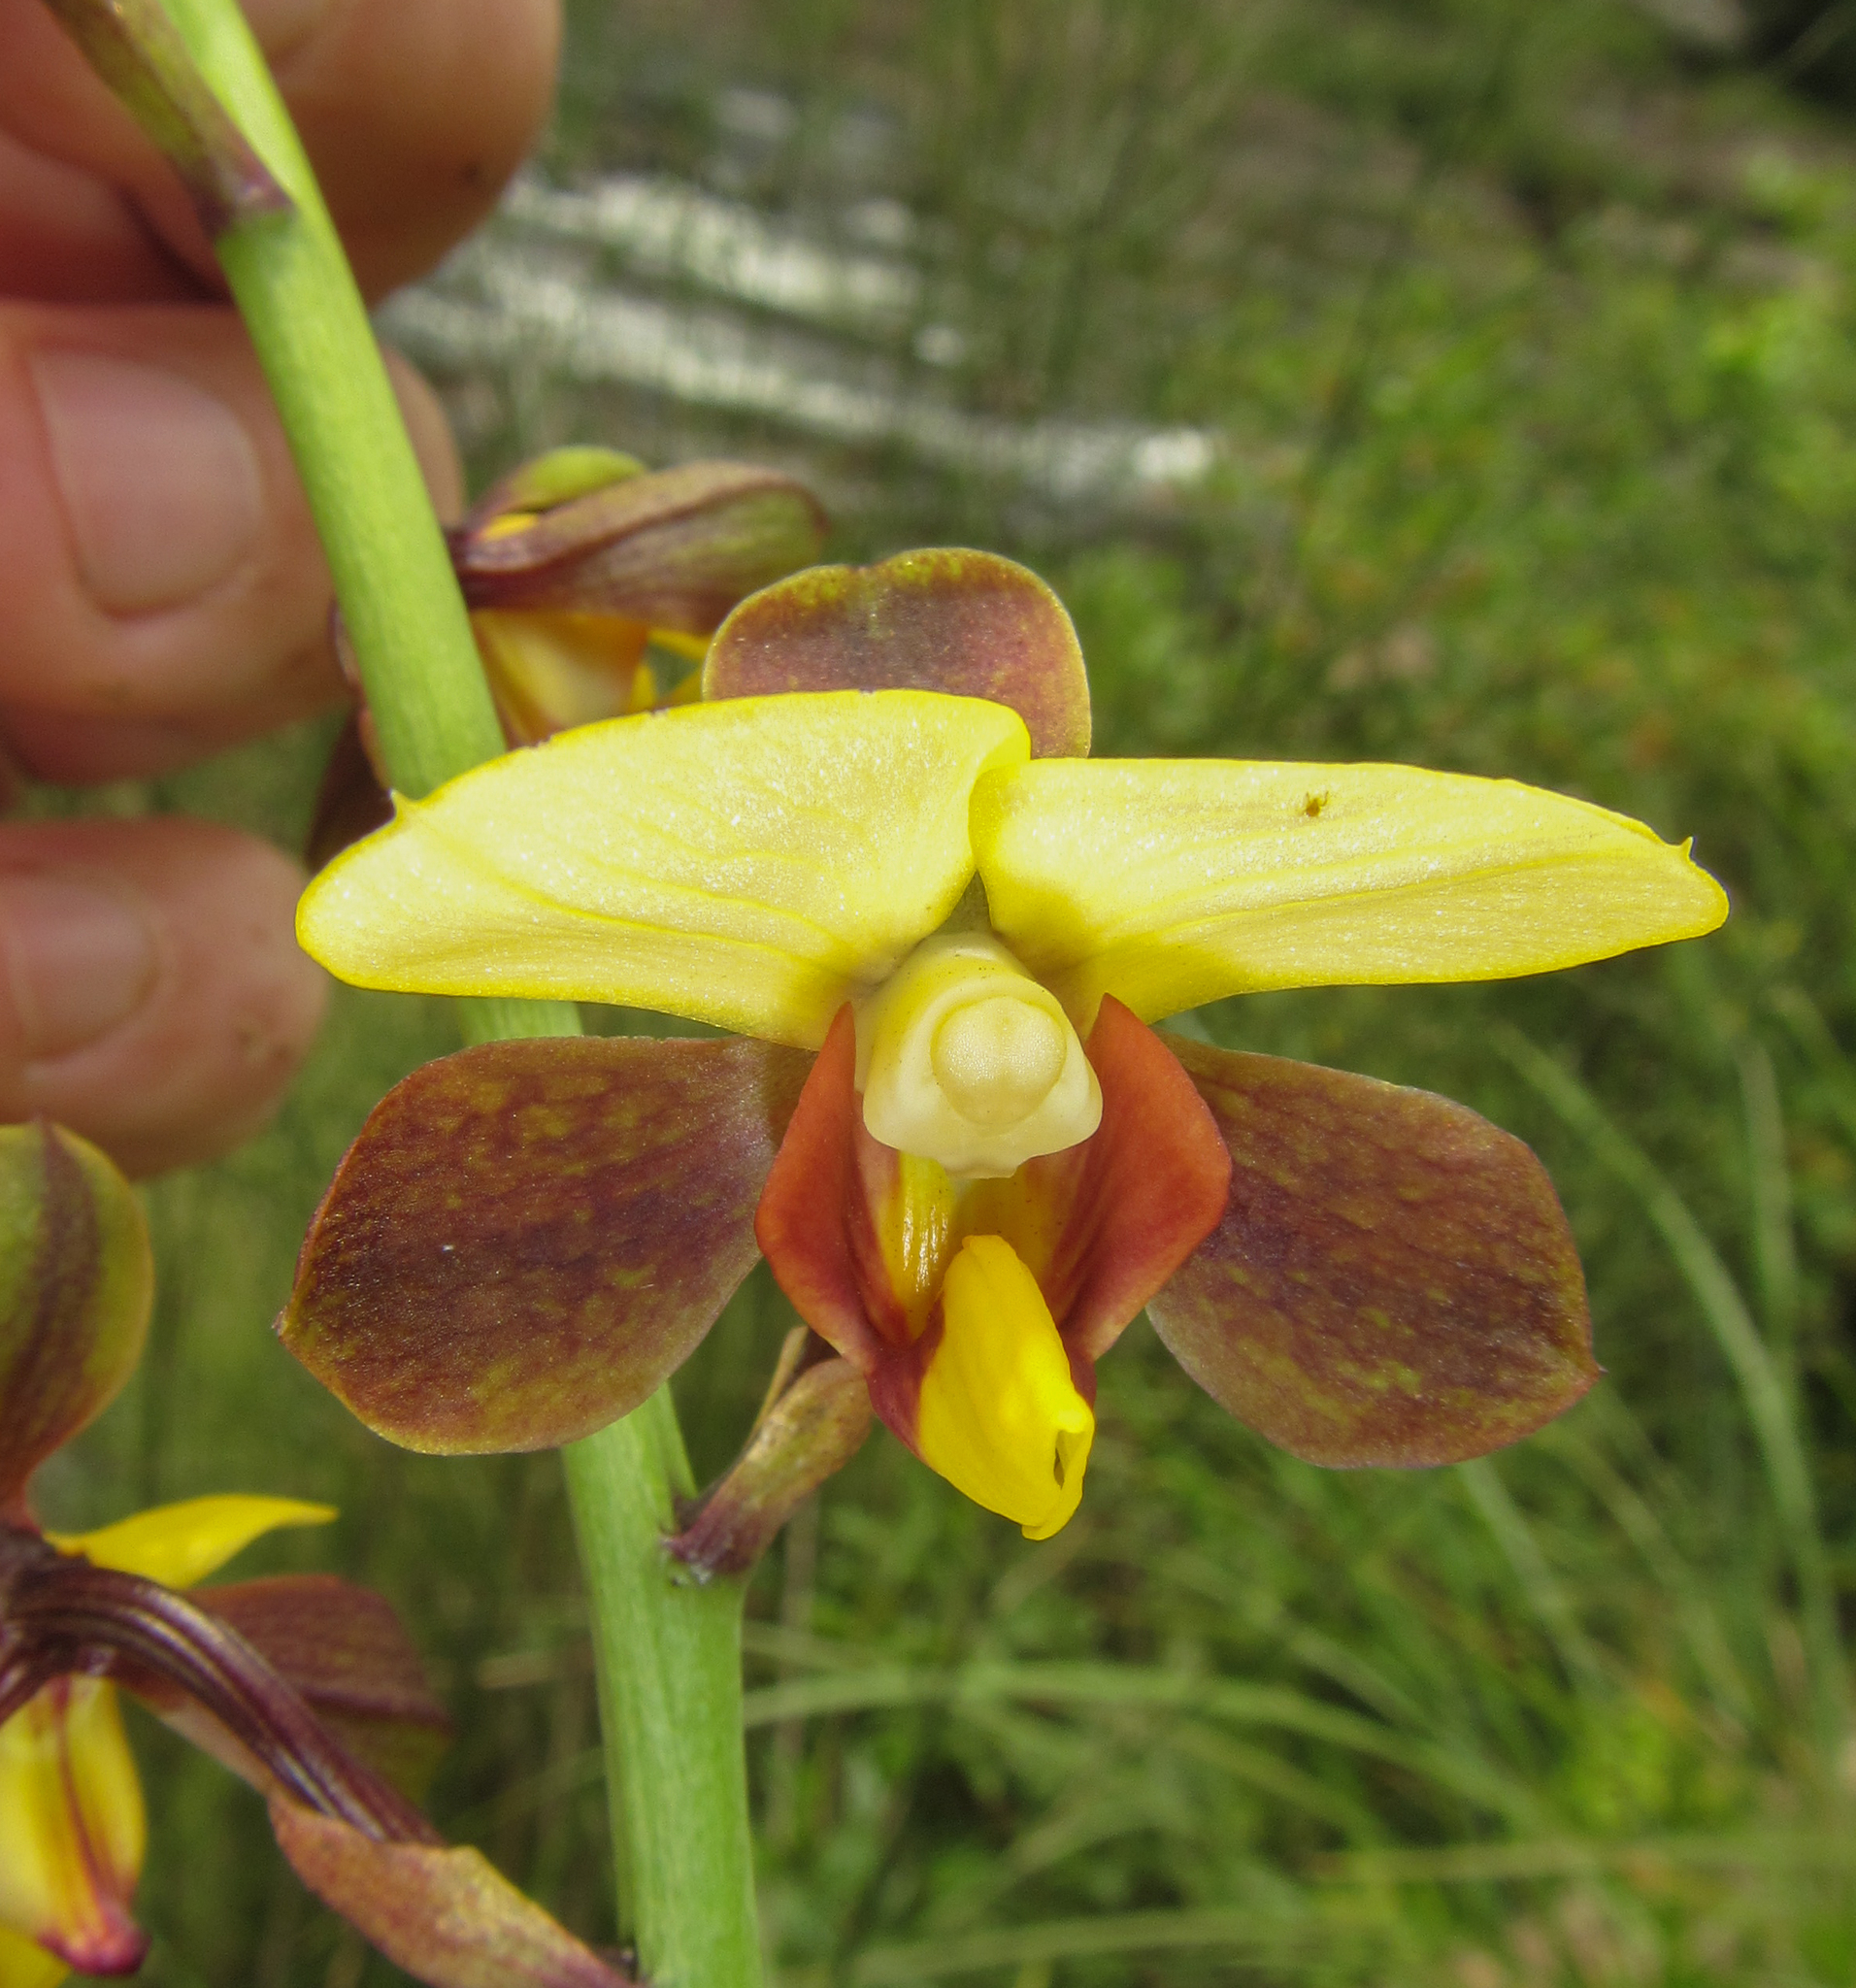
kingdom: Plantae
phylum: Tracheophyta
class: Liliopsida
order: Asparagales
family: Orchidaceae
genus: Eulophia
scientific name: Eulophia streptopetala
